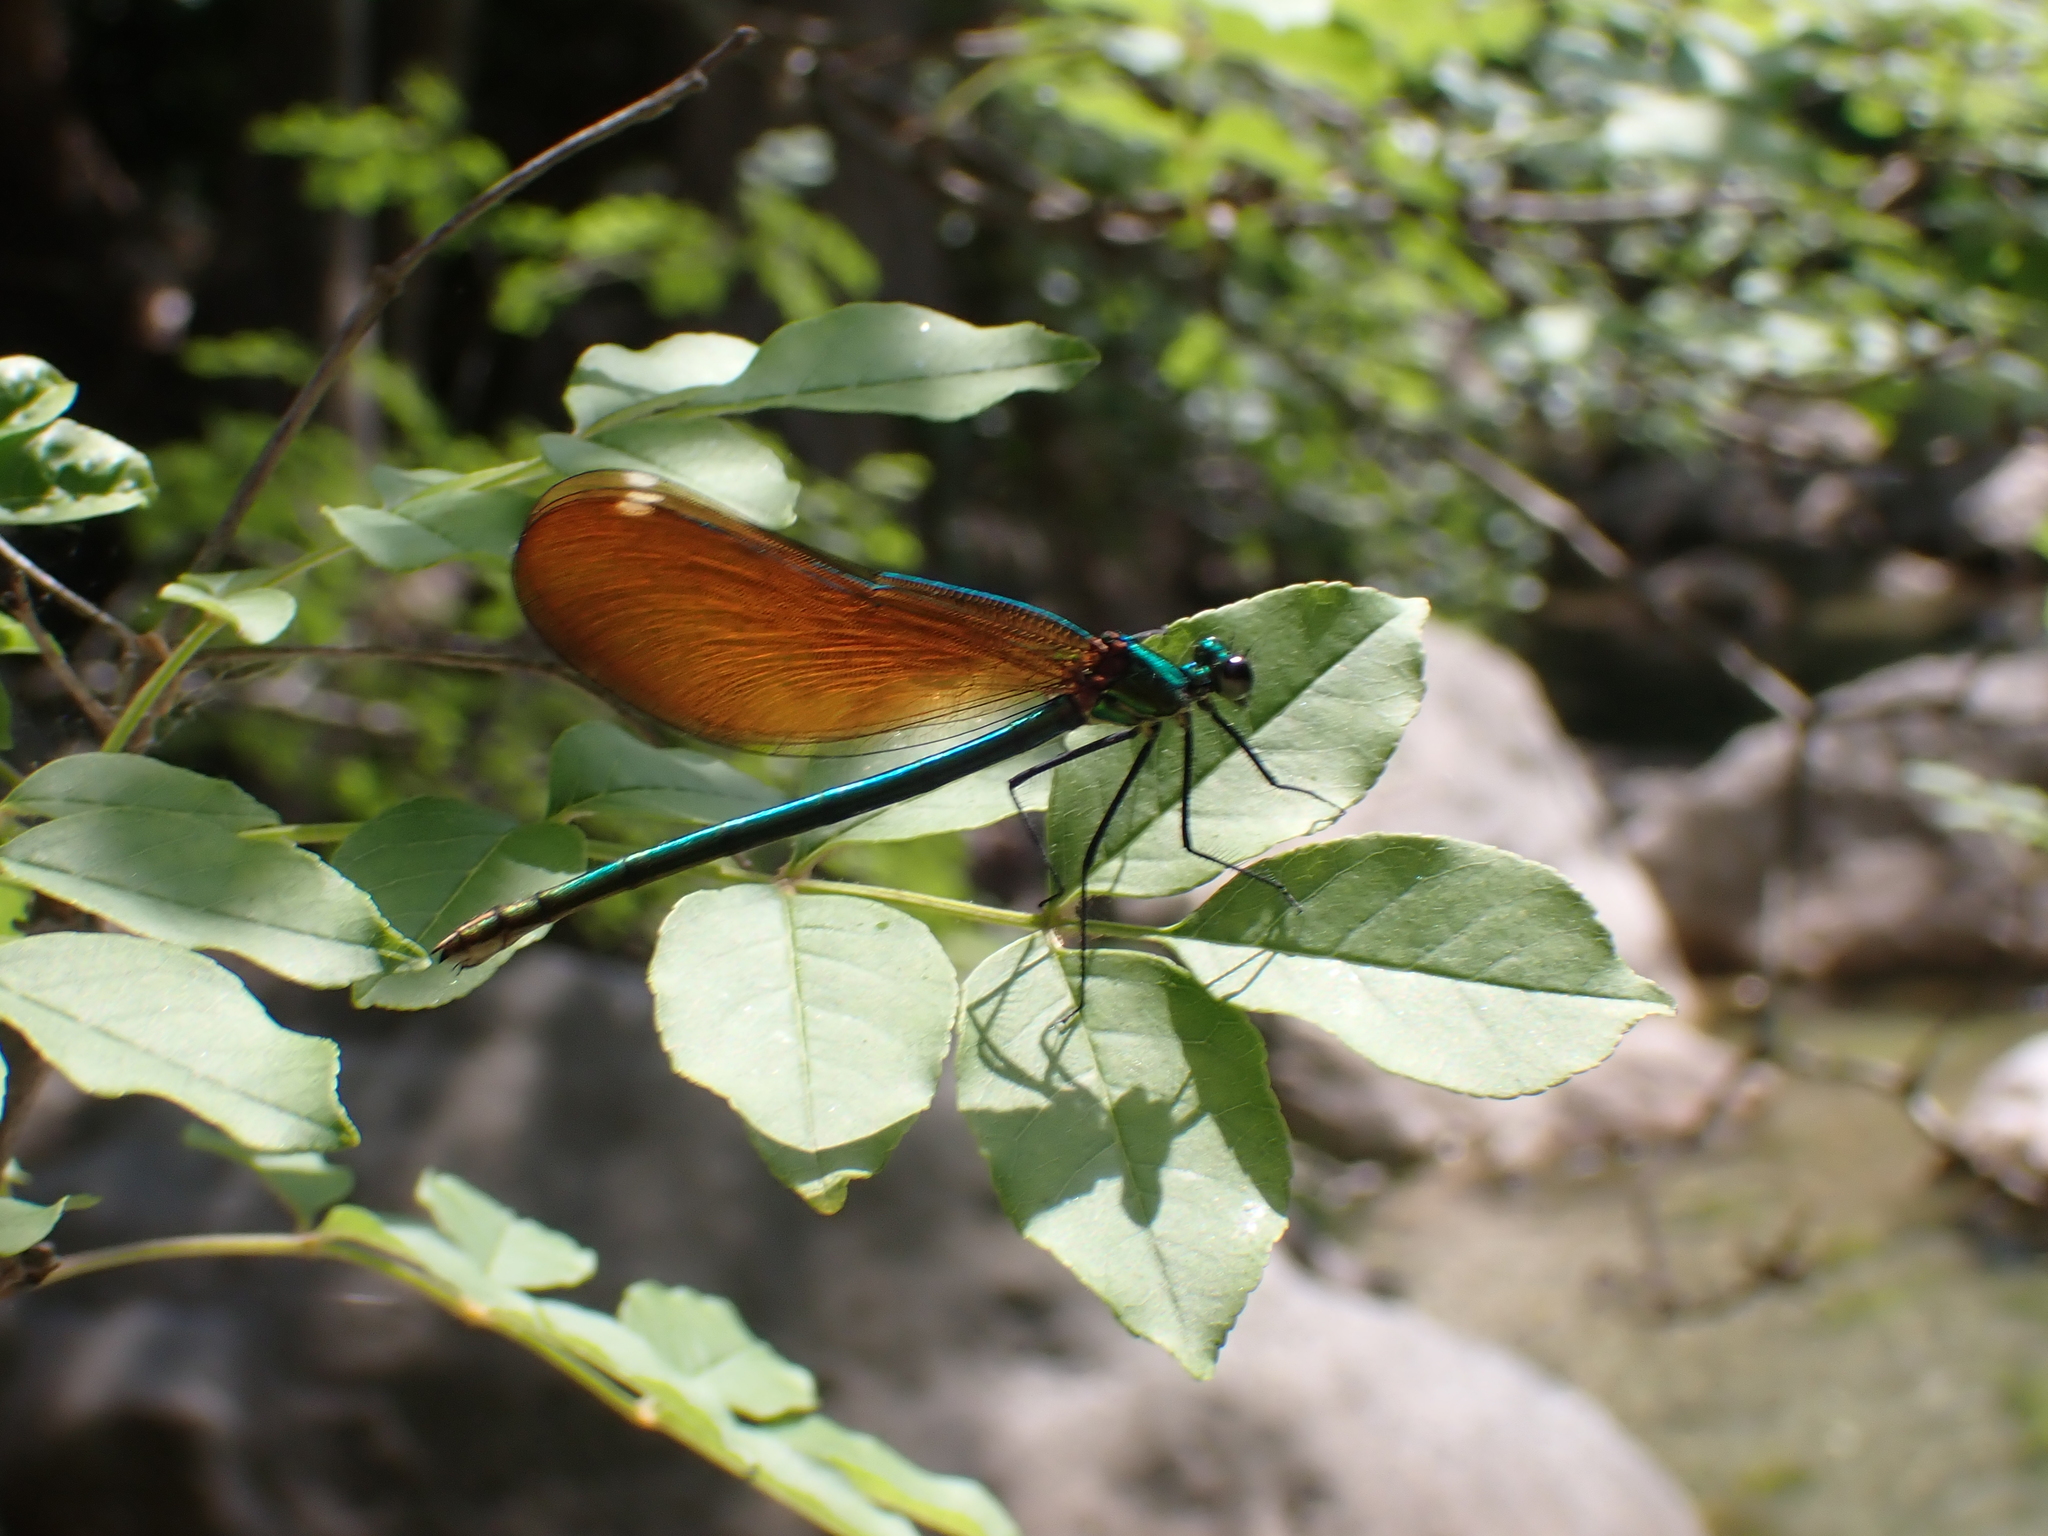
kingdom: Animalia
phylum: Arthropoda
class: Insecta
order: Odonata
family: Calopterygidae
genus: Calopteryx
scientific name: Calopteryx virgo
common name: Beautiful demoiselle
